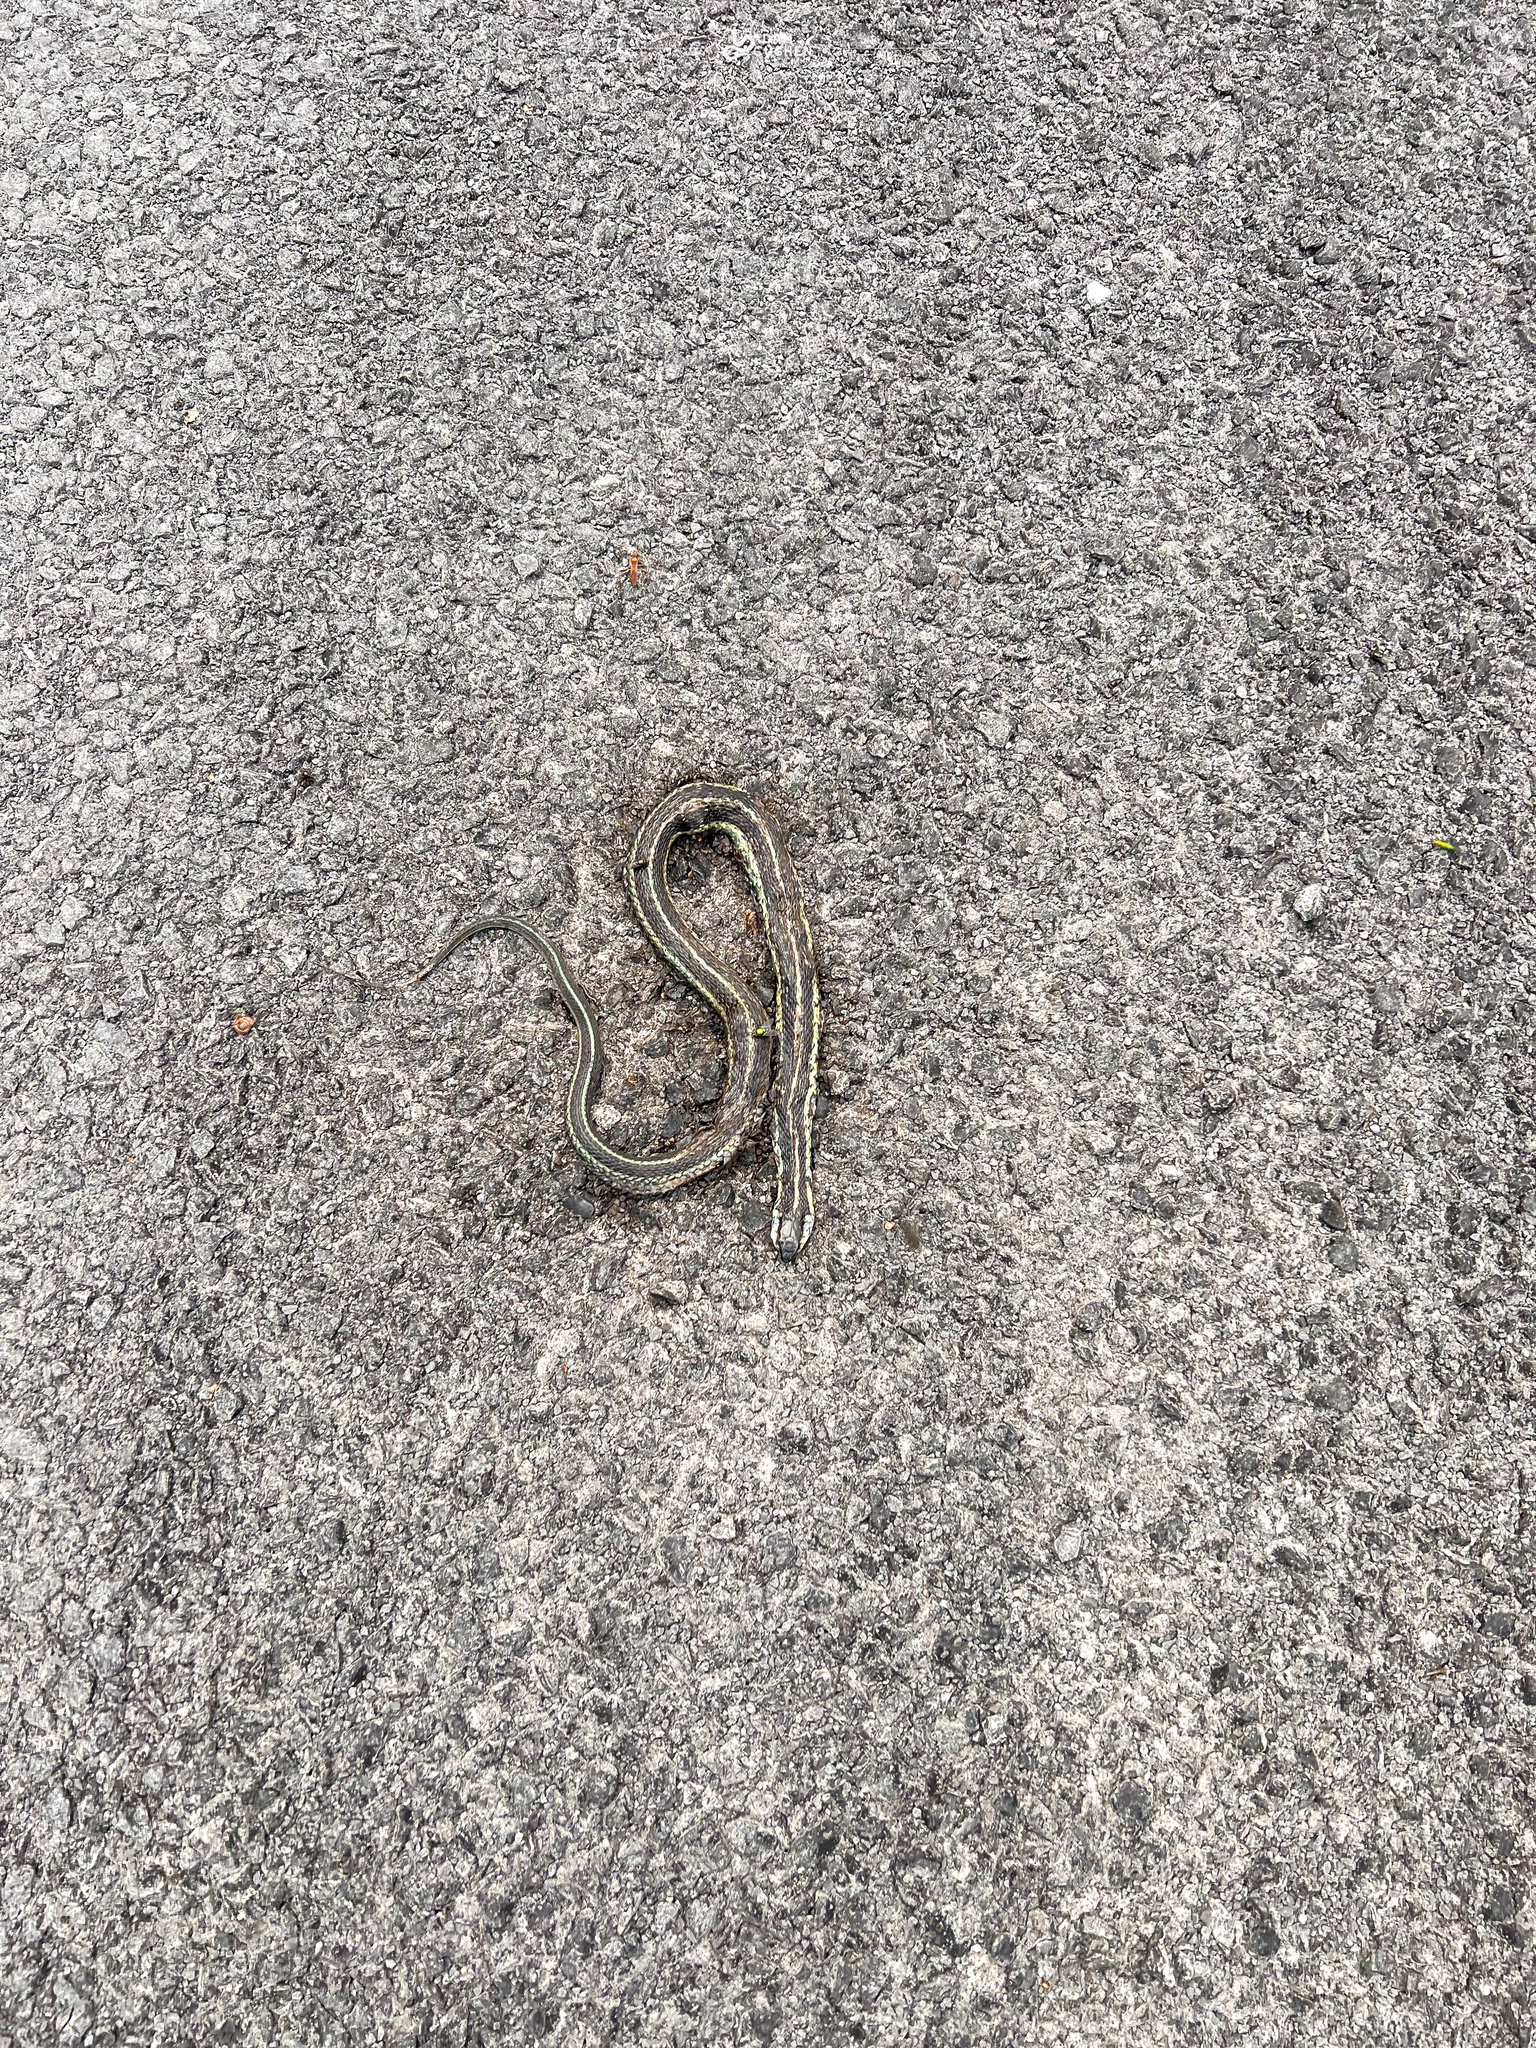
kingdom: Animalia
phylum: Chordata
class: Squamata
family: Colubridae
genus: Thamnophis
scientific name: Thamnophis sirtalis
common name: Common garter snake
